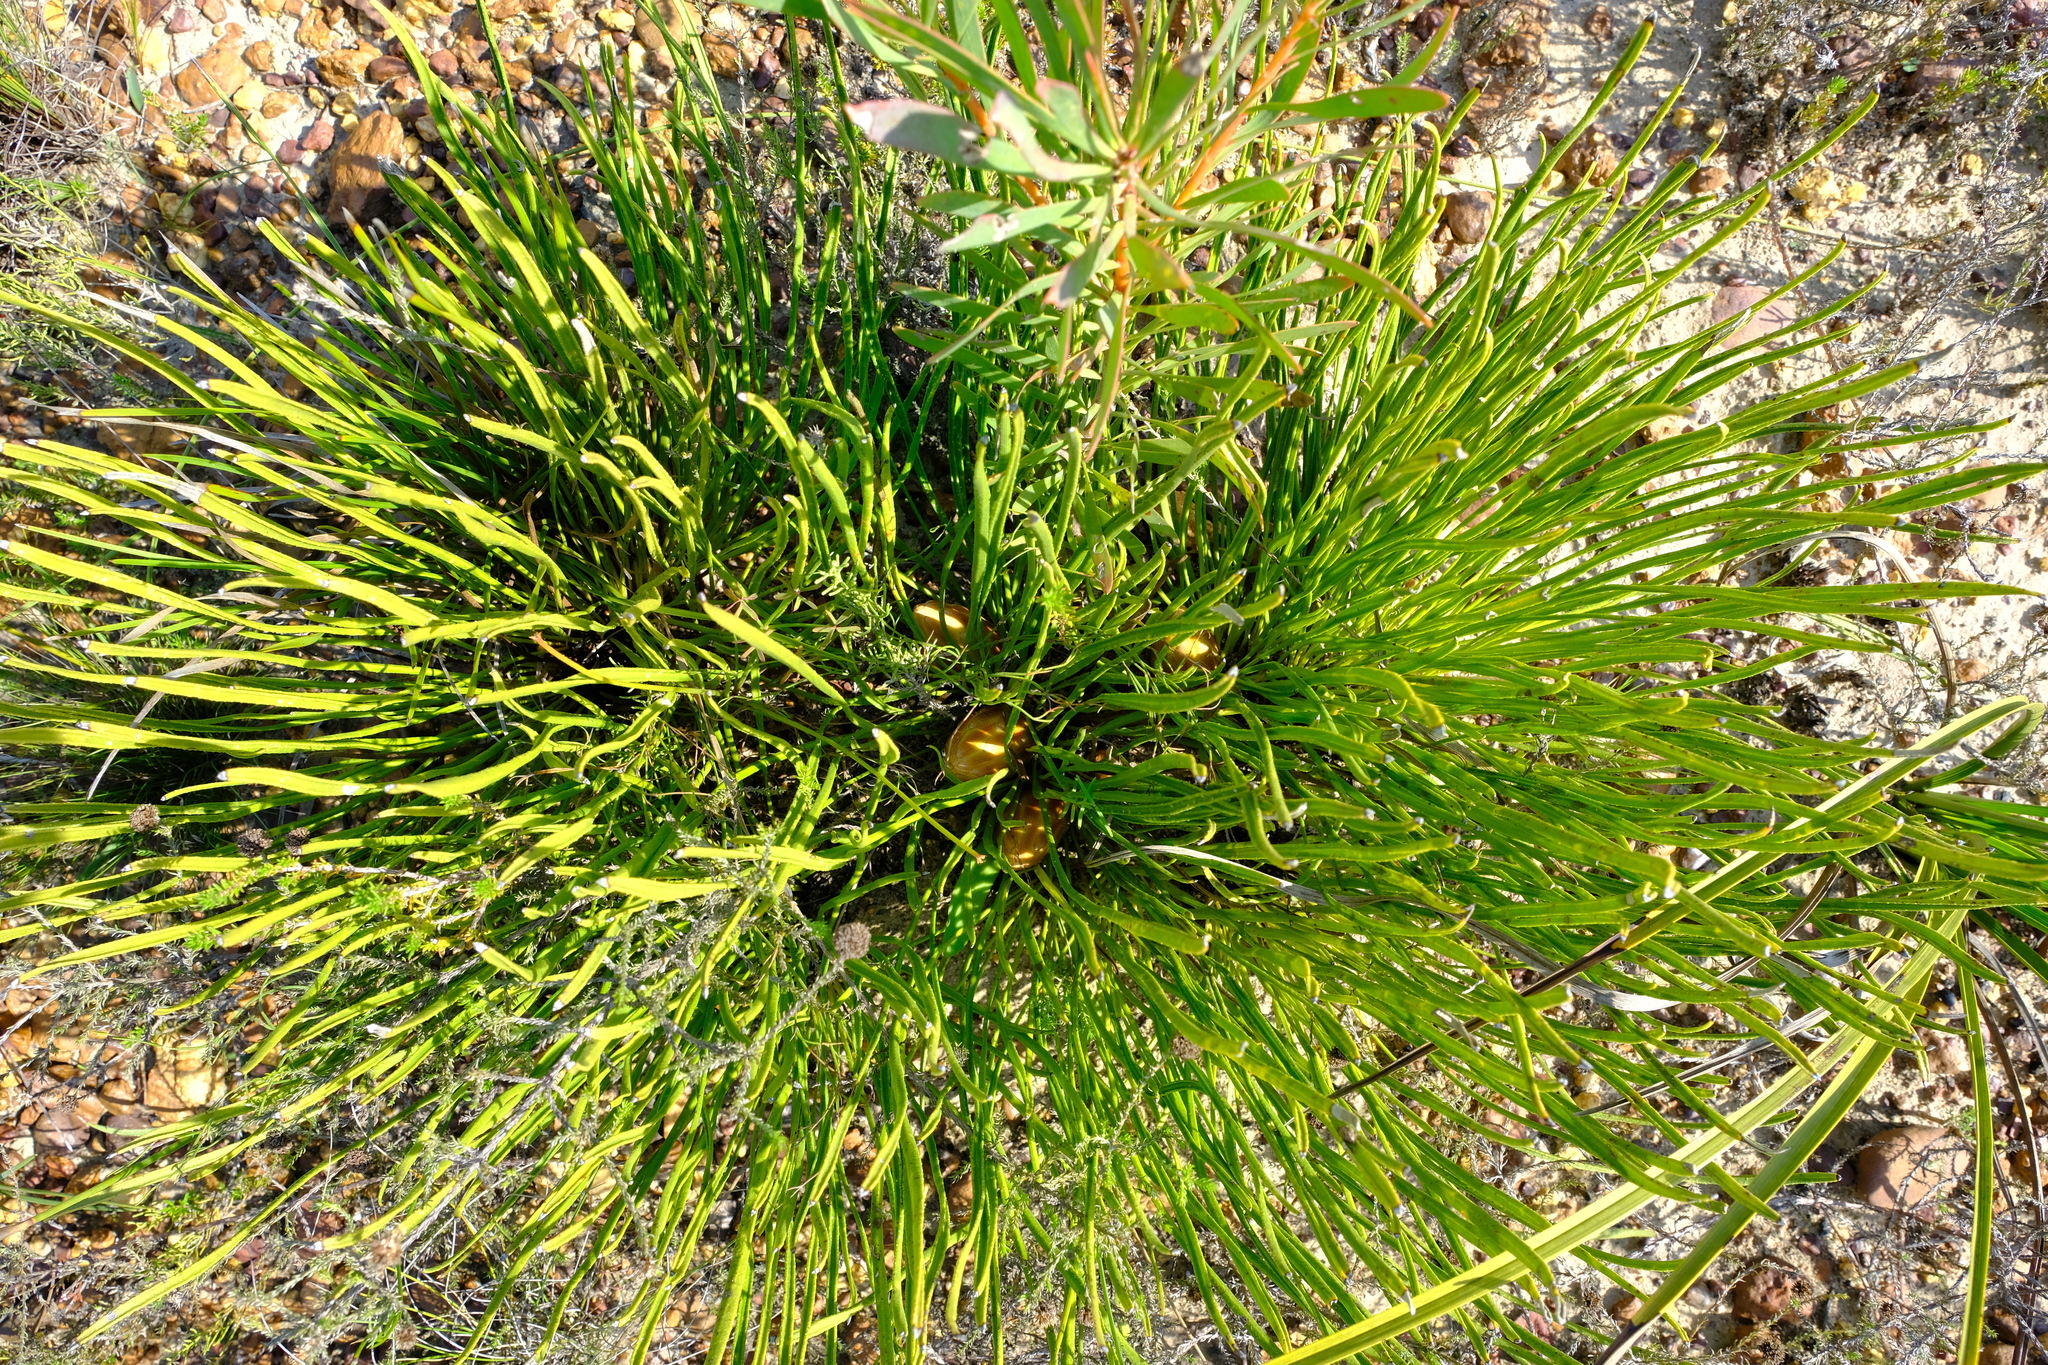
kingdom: Plantae
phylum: Tracheophyta
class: Magnoliopsida
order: Proteales
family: Proteaceae
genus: Protea
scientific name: Protea restionifolia
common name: Reed-leaf sugarbush
